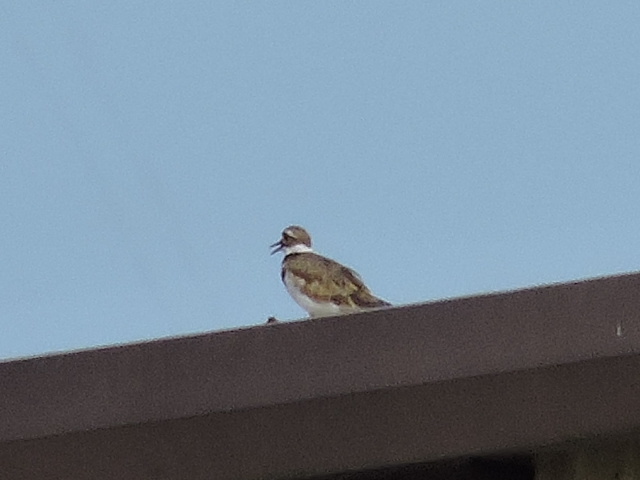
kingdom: Animalia
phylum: Chordata
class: Aves
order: Charadriiformes
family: Charadriidae
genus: Charadrius
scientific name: Charadrius vociferus
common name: Killdeer
